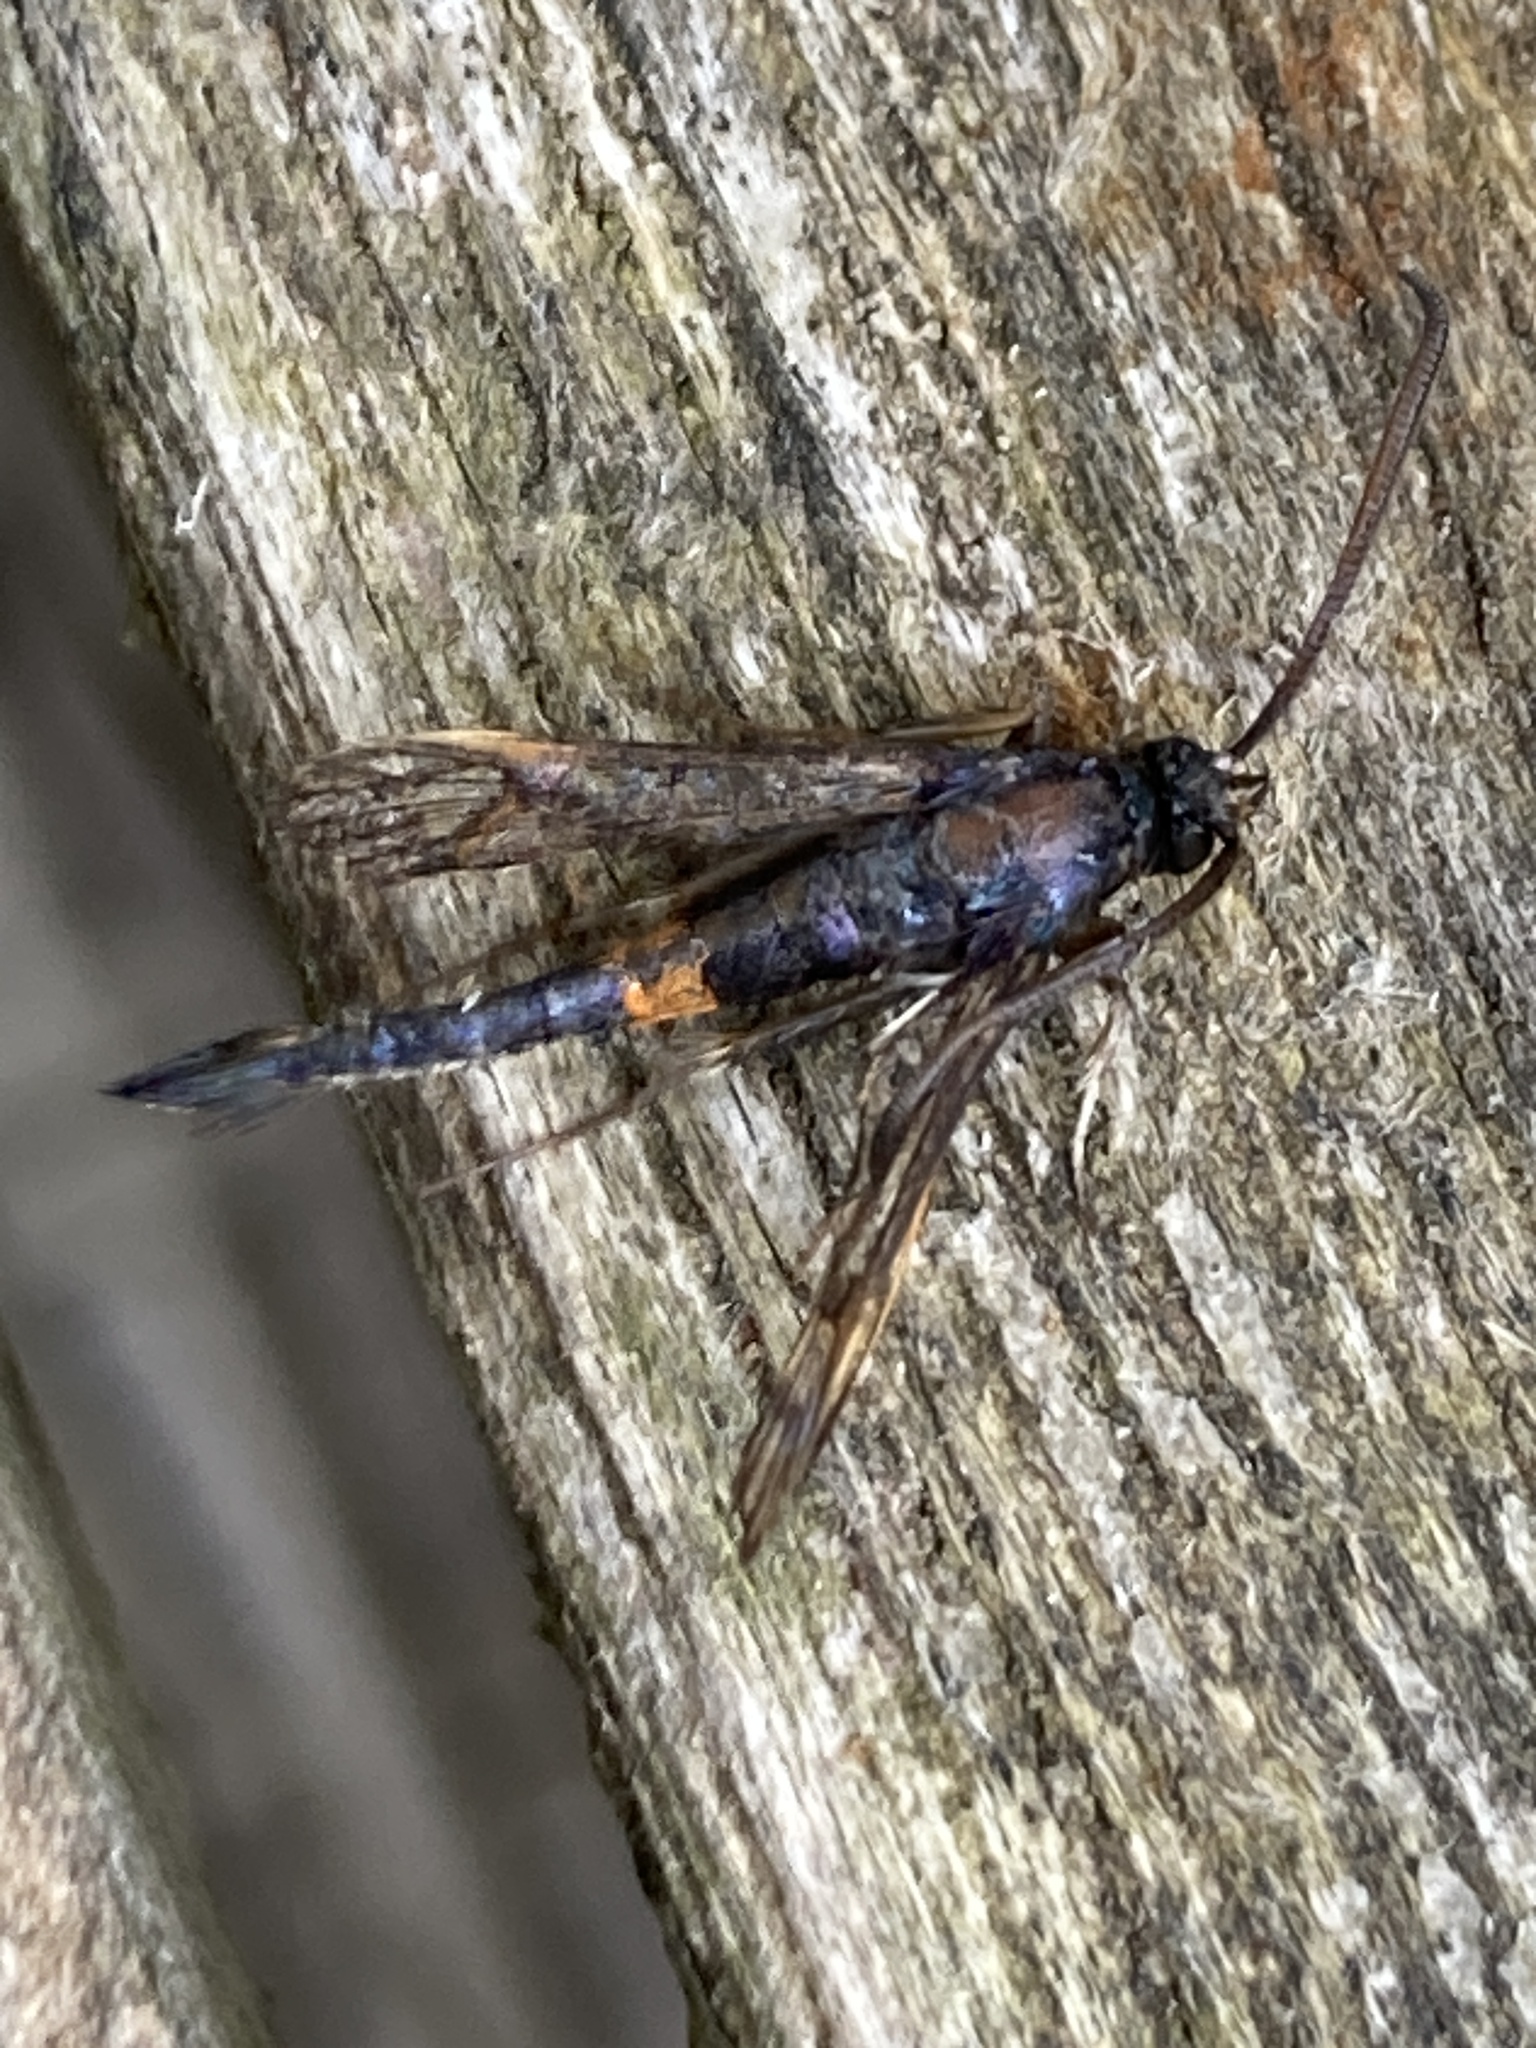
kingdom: Animalia
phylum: Arthropoda
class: Insecta
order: Lepidoptera
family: Sesiidae
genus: Synanthedon
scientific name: Synanthedon myopaeformis
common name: Red-belted clearwing
